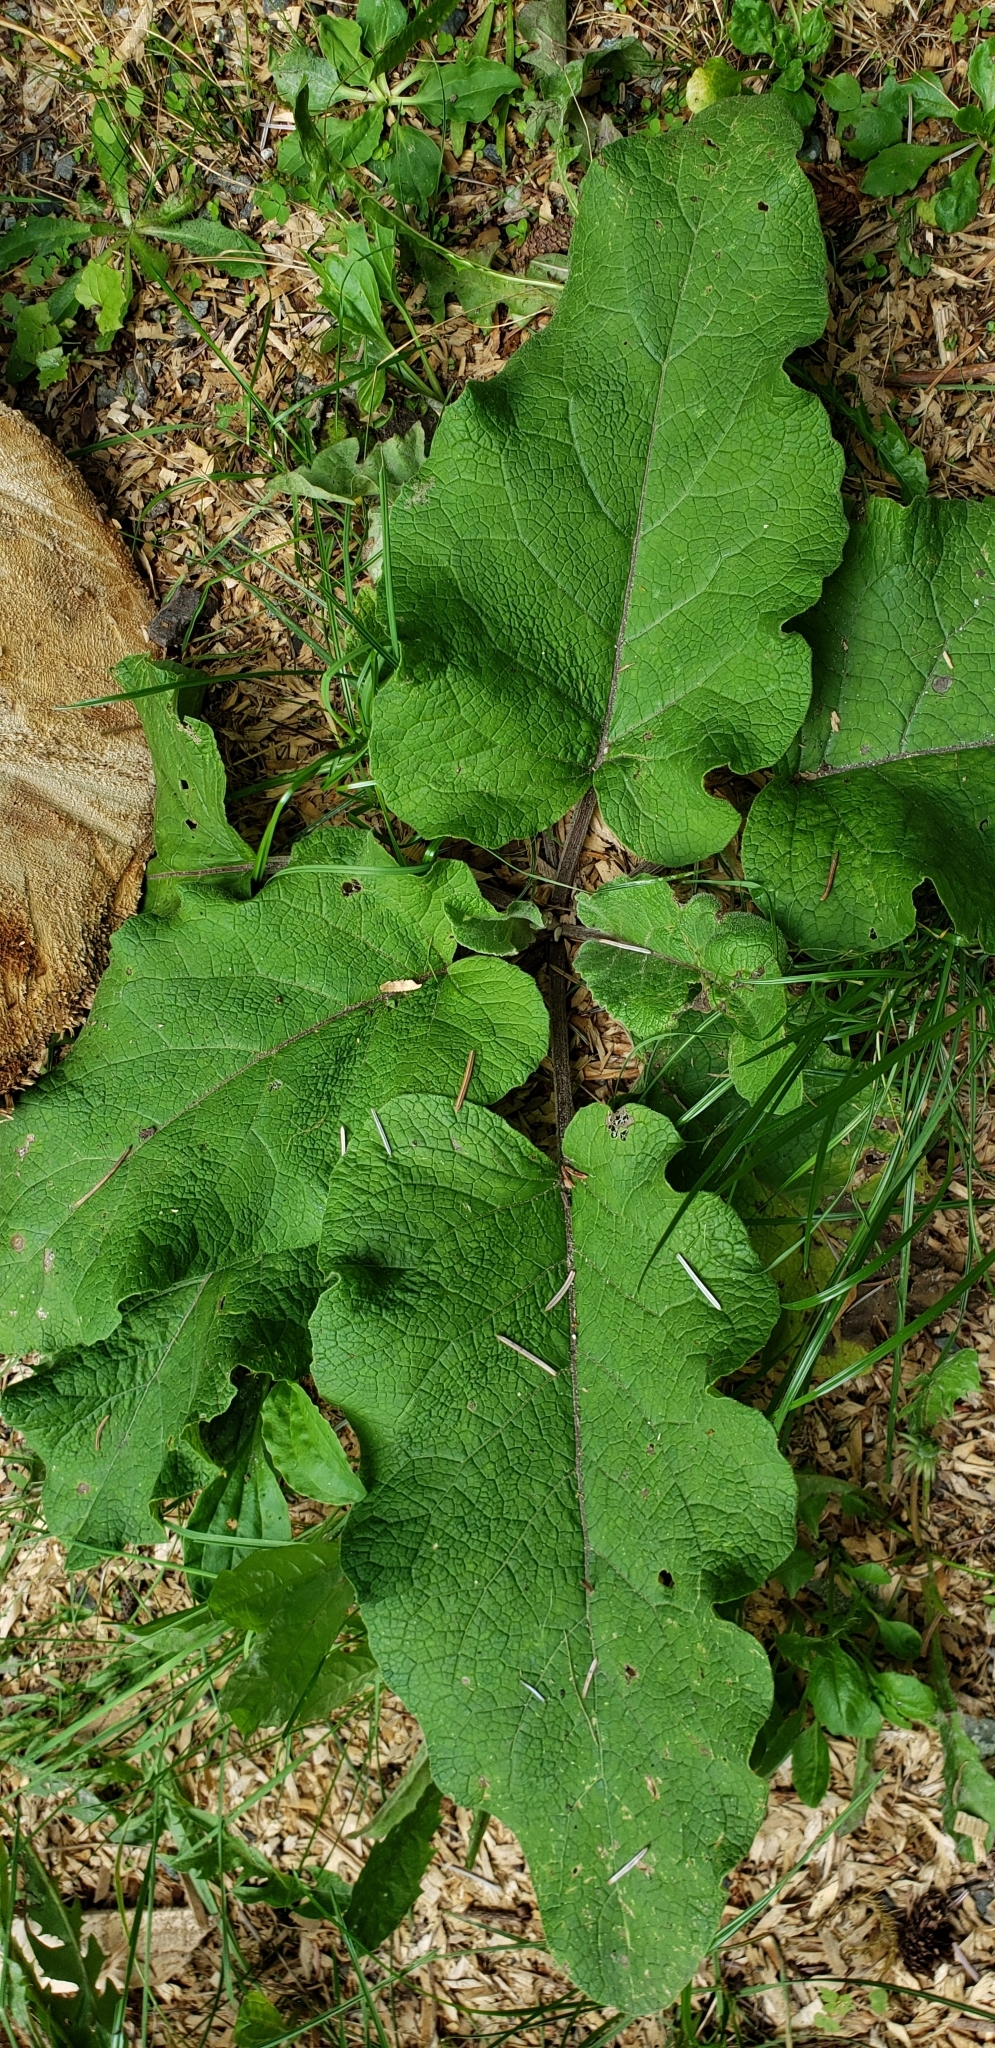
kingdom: Plantae
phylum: Tracheophyta
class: Magnoliopsida
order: Asterales
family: Asteraceae
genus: Arctium
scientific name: Arctium
